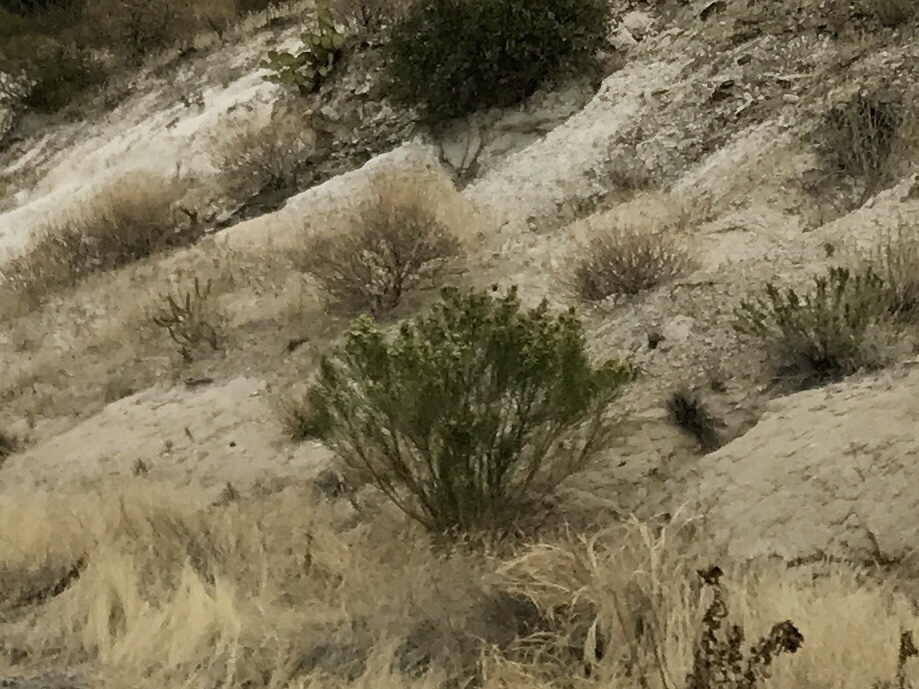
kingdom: Plantae
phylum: Tracheophyta
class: Magnoliopsida
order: Zygophyllales
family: Zygophyllaceae
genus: Larrea
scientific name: Larrea tridentata
